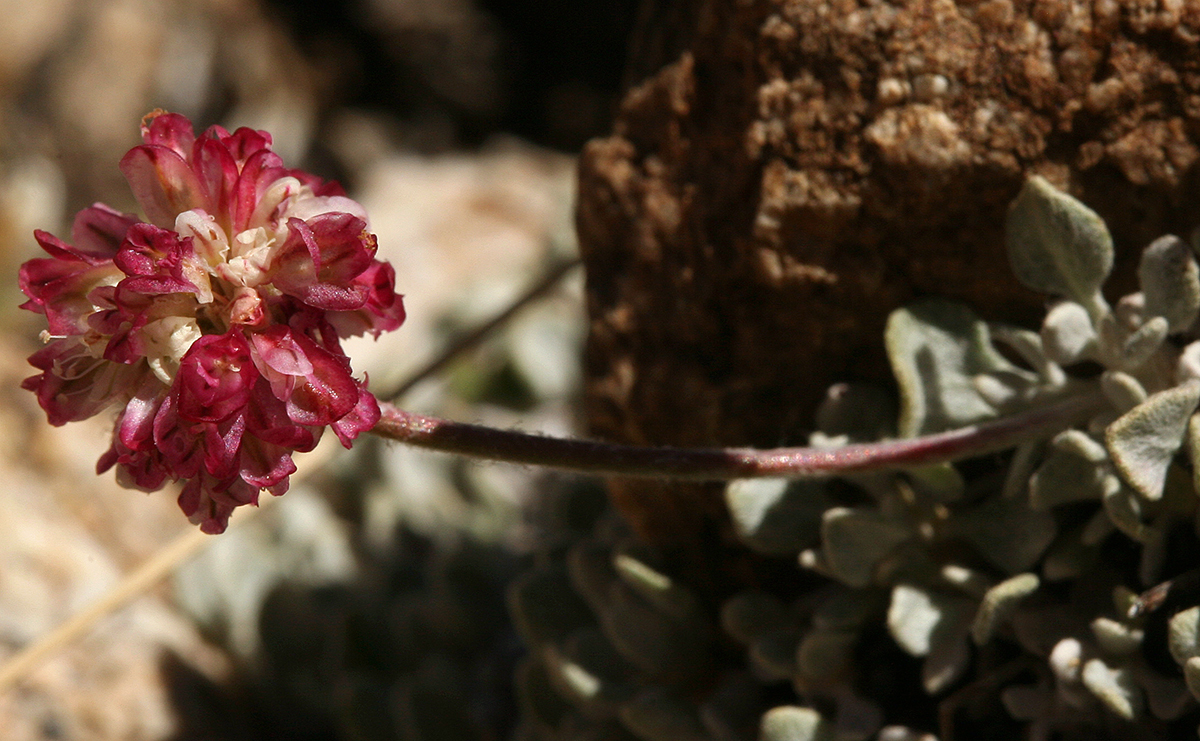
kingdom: Plantae
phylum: Tracheophyta
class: Magnoliopsida
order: Caryophyllales
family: Polygonaceae
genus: Eriogonum
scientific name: Eriogonum ovalifolium
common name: Cushion buckwheat
